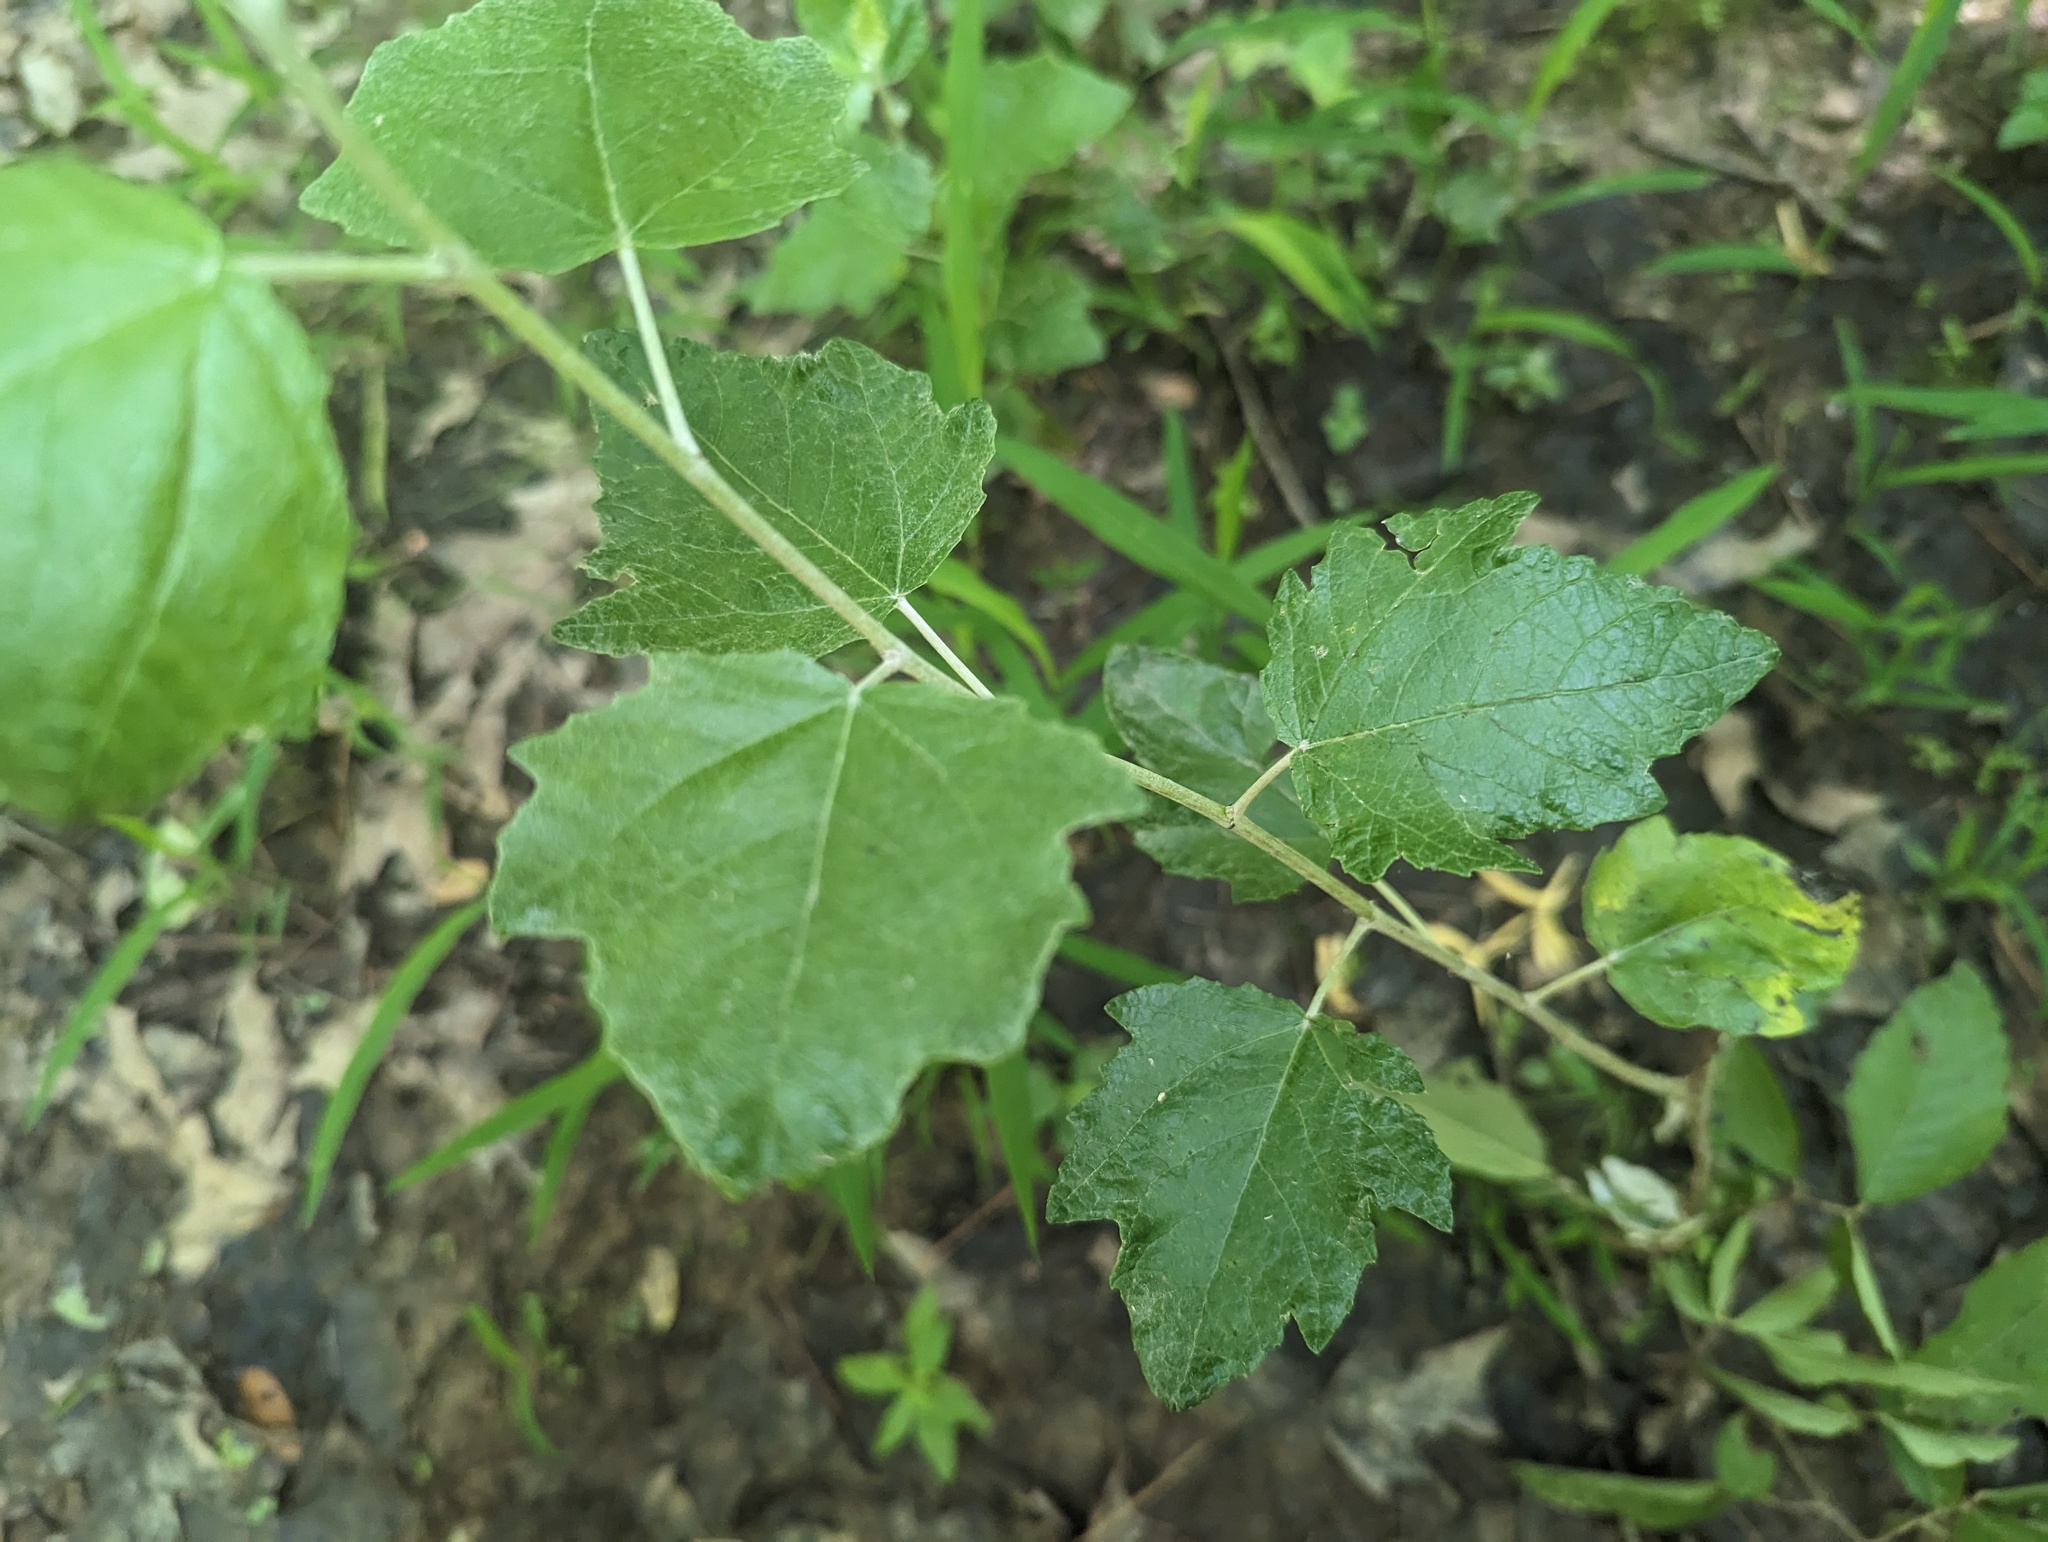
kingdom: Plantae
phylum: Tracheophyta
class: Magnoliopsida
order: Malpighiales
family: Salicaceae
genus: Populus
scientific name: Populus alba
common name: White poplar
